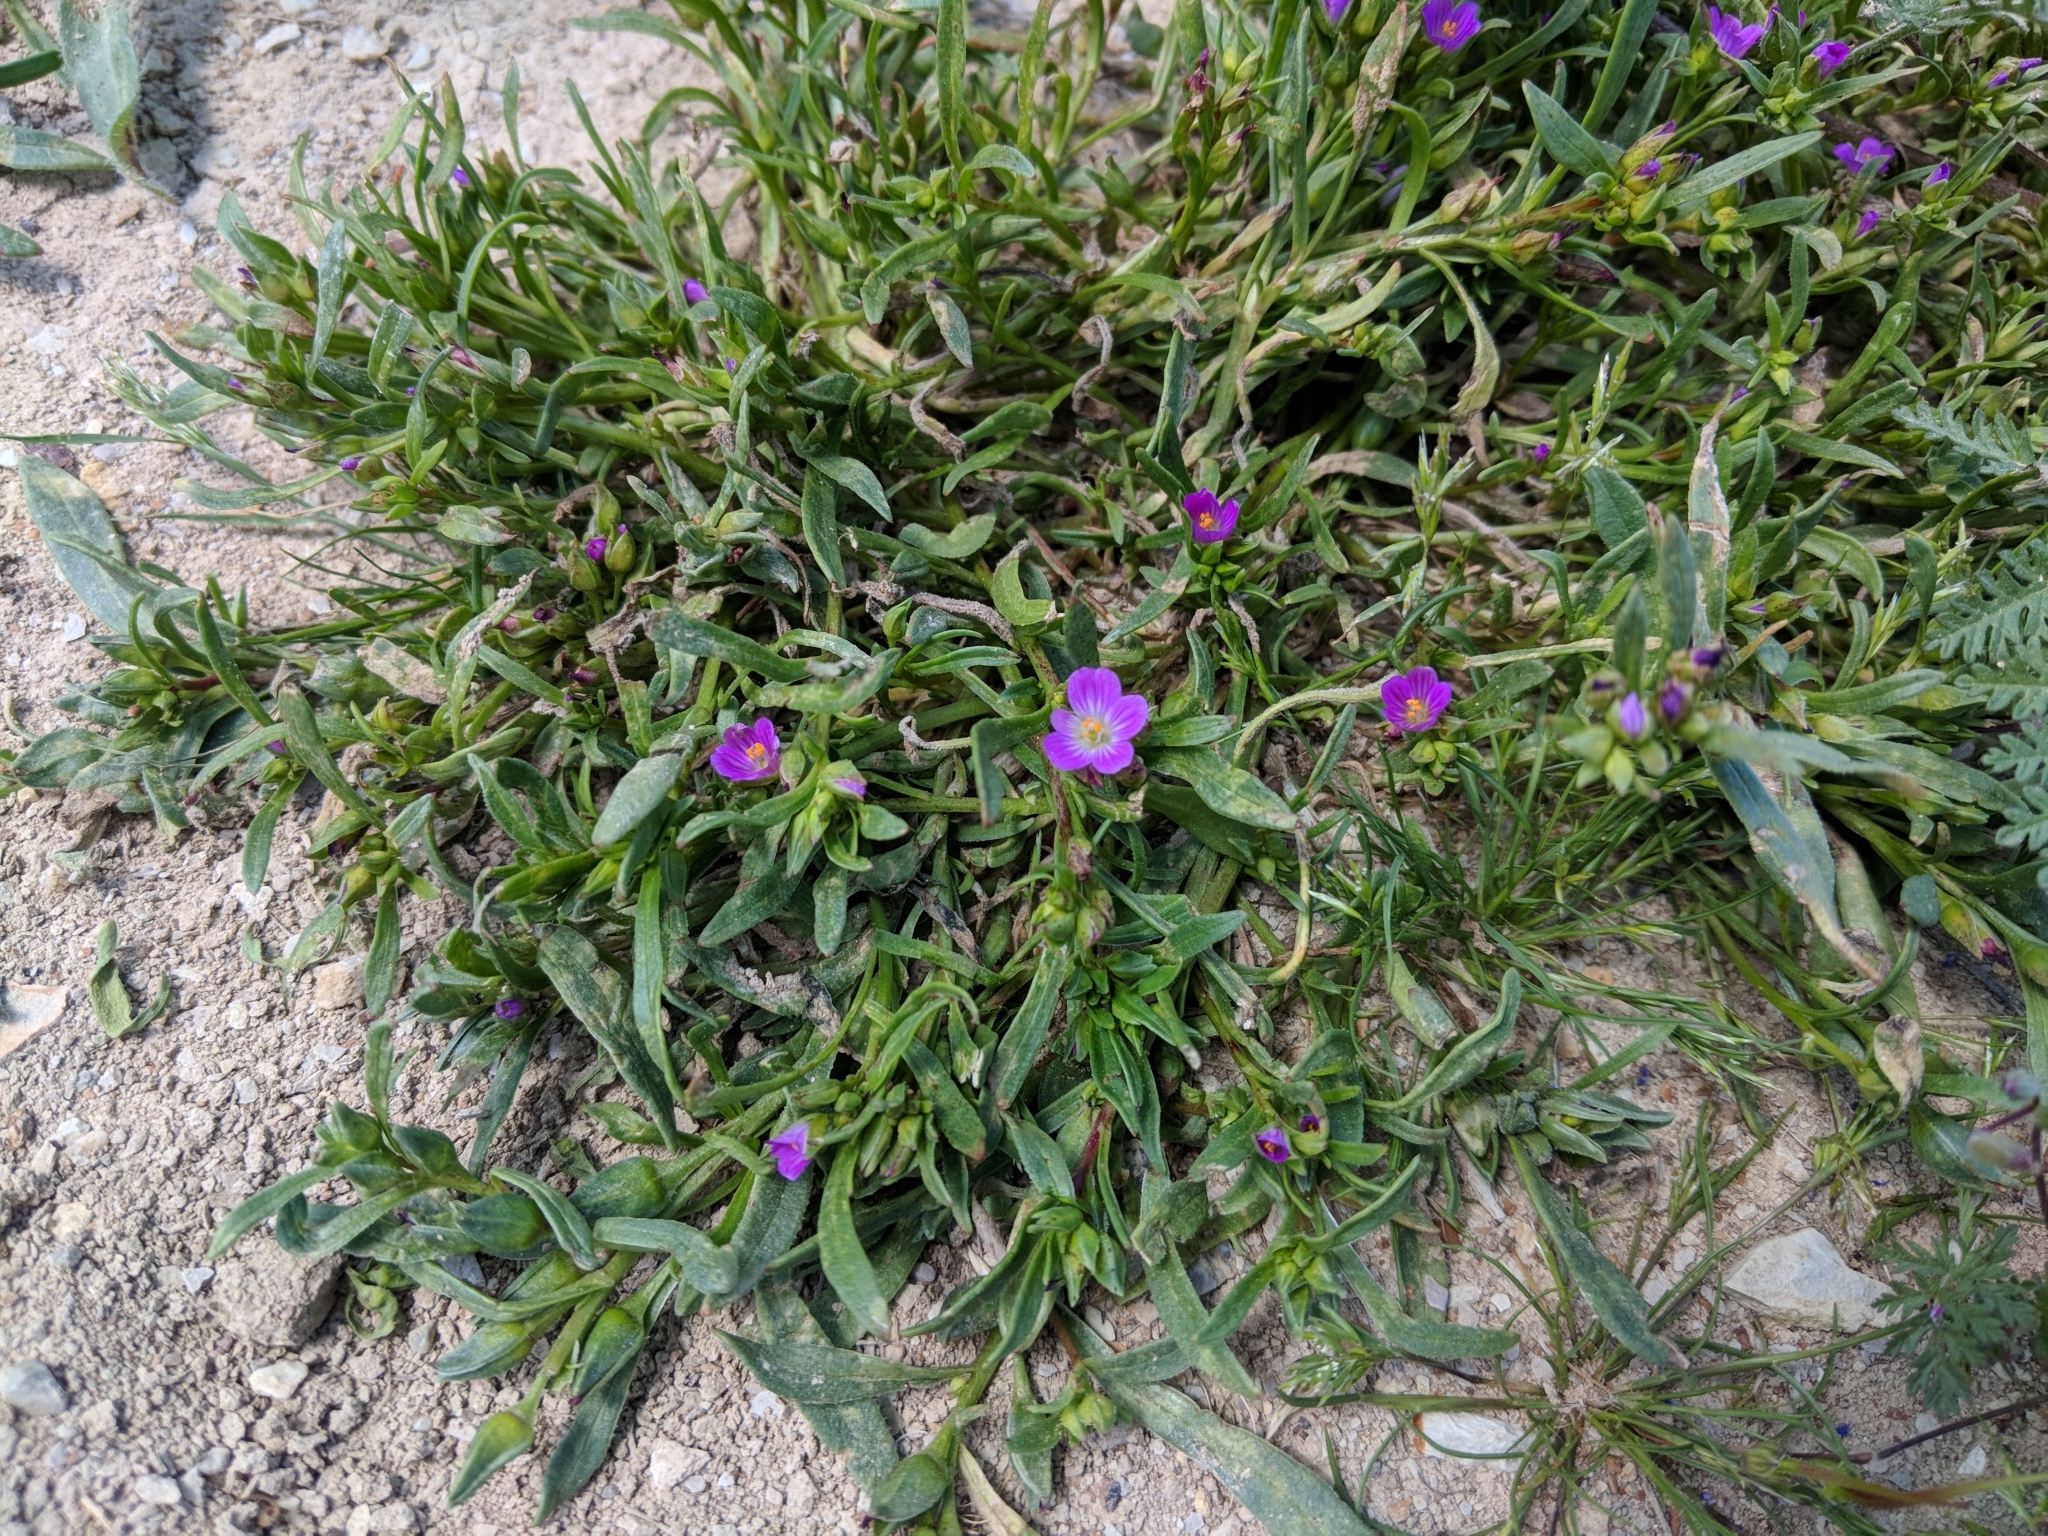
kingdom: Plantae
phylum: Tracheophyta
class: Magnoliopsida
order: Caryophyllales
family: Montiaceae
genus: Calandrinia
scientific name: Calandrinia menziesii
